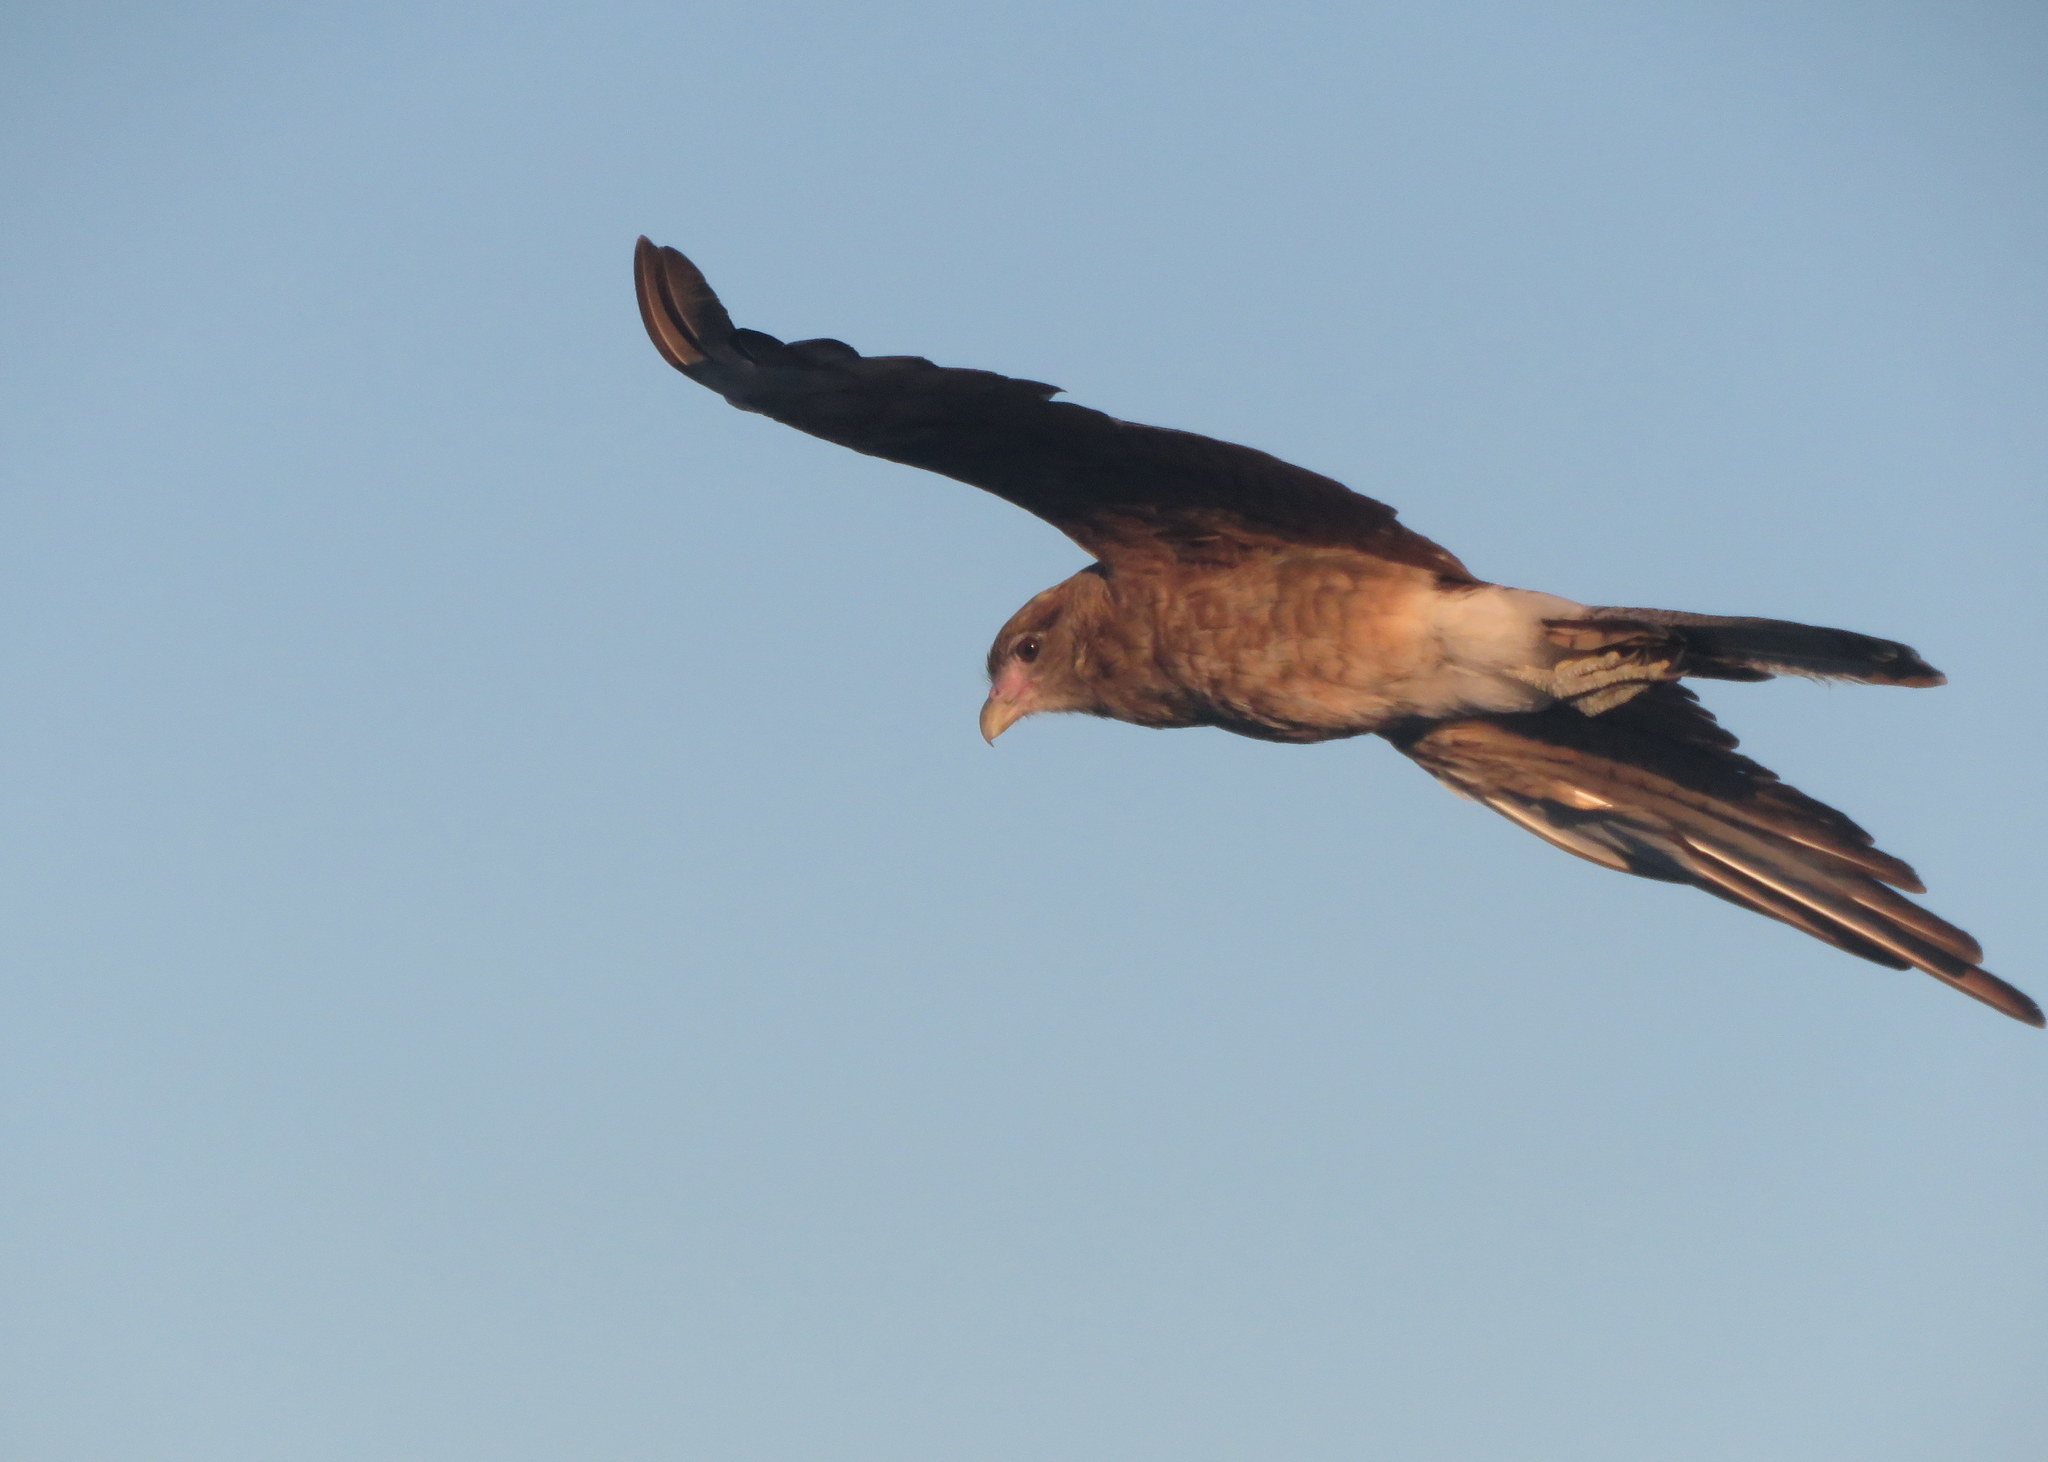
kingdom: Animalia
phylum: Chordata
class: Aves
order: Falconiformes
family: Falconidae
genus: Daptrius
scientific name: Daptrius
